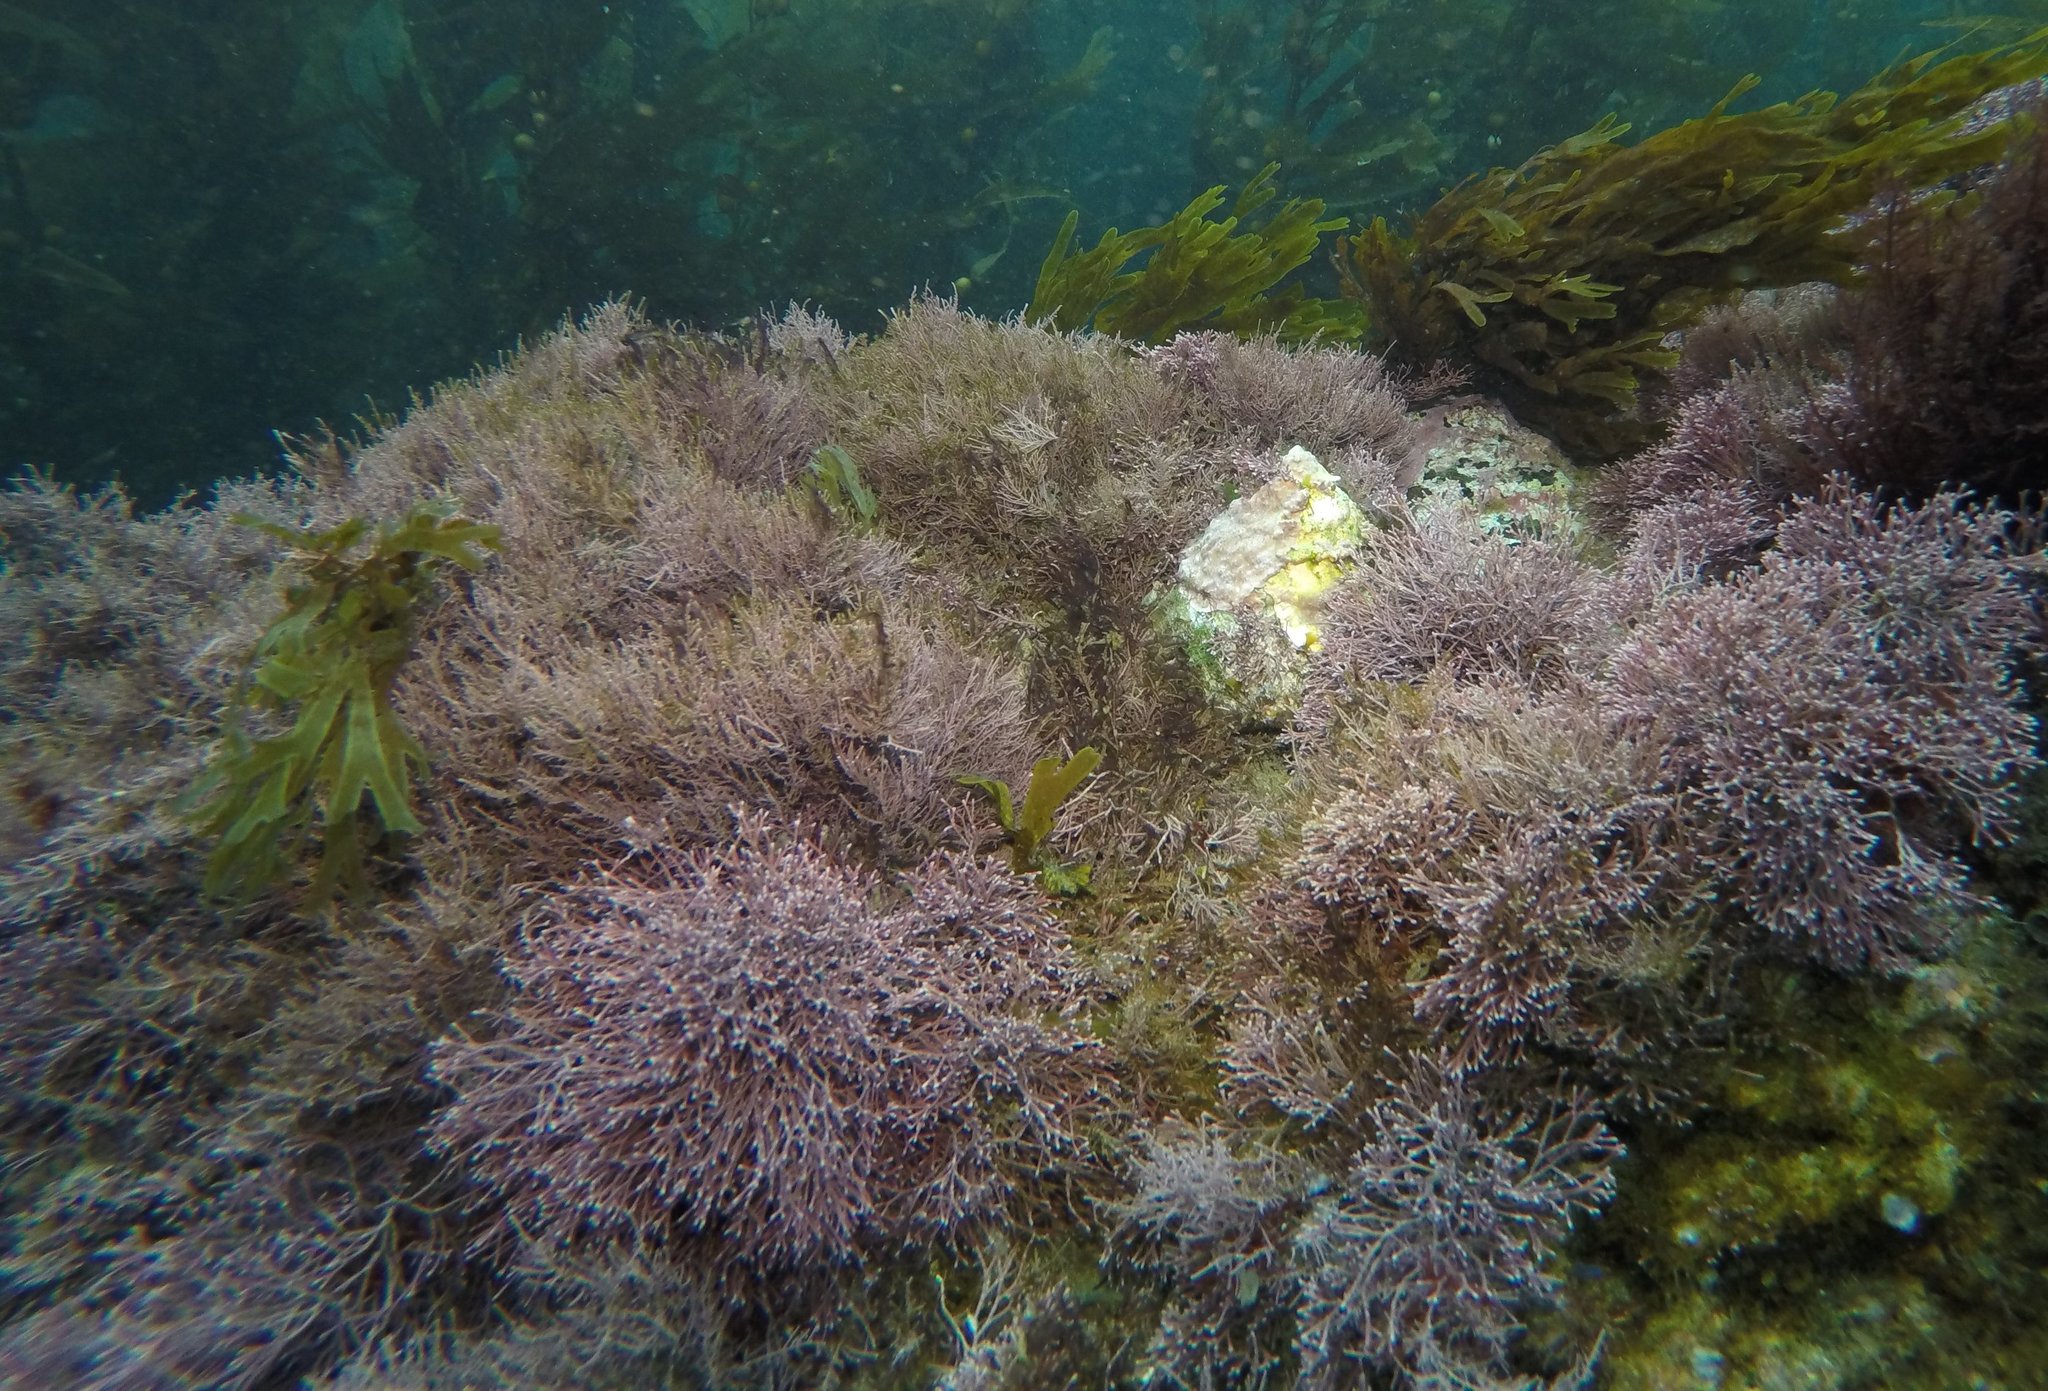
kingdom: Plantae
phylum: Rhodophyta
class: Florideophyceae
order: Corallinales
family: Lithophyllaceae
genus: Lithothrix
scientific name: Lithothrix aspergillum
